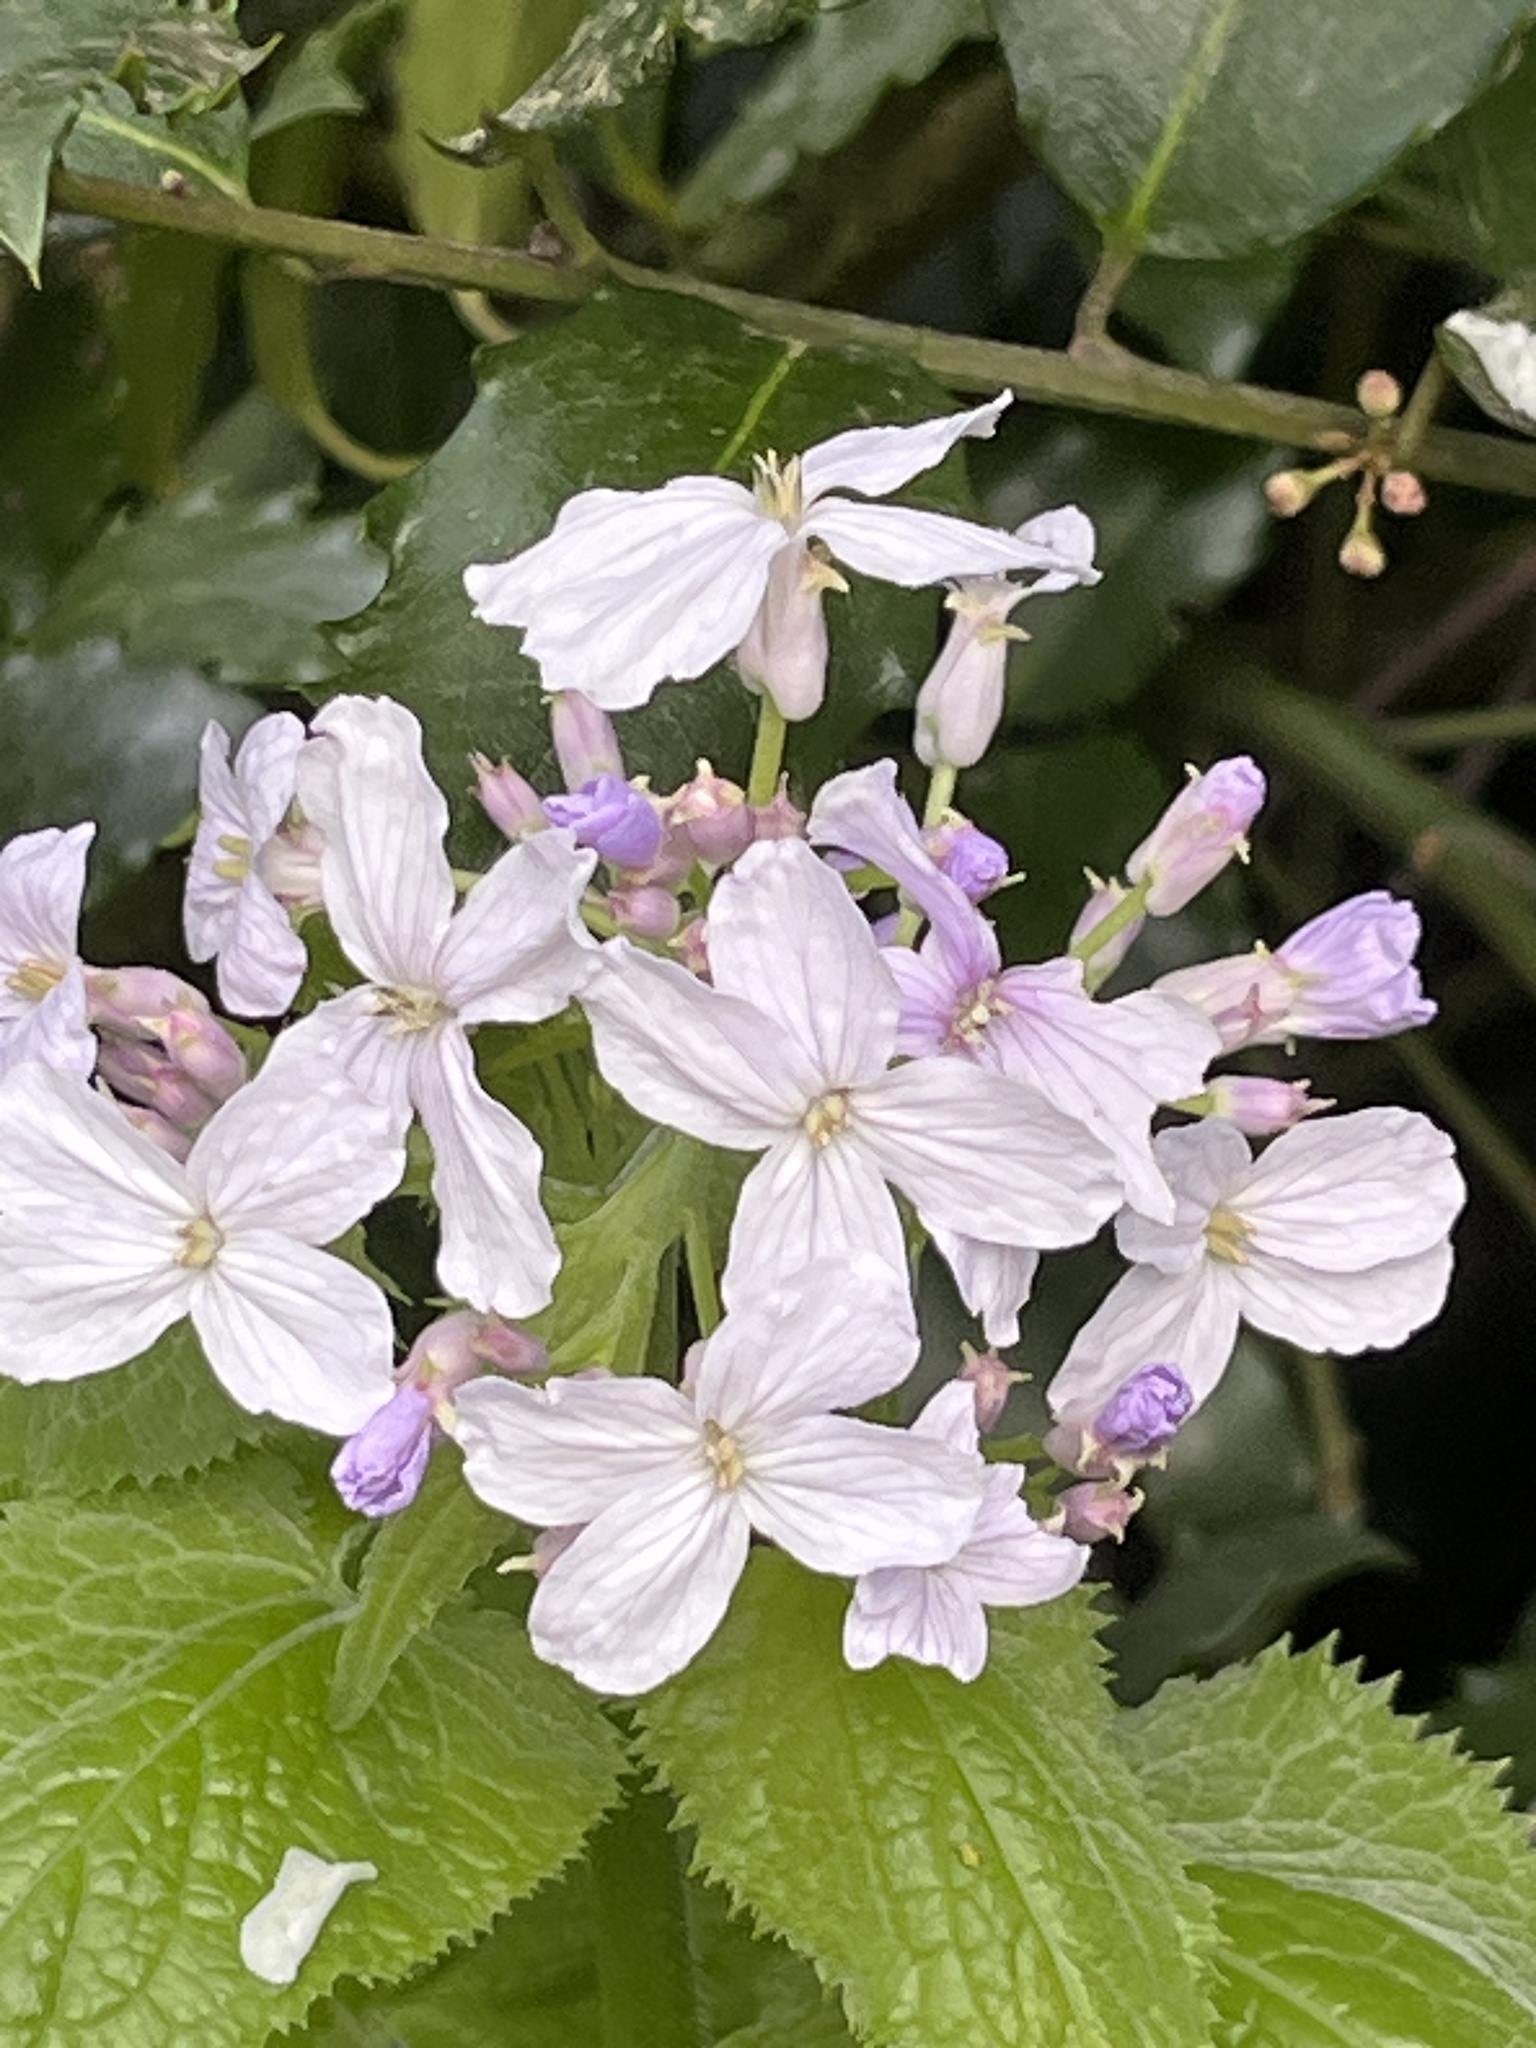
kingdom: Plantae
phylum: Tracheophyta
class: Magnoliopsida
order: Brassicales
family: Brassicaceae
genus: Lunaria
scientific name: Lunaria rediviva
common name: Perennial honesty
